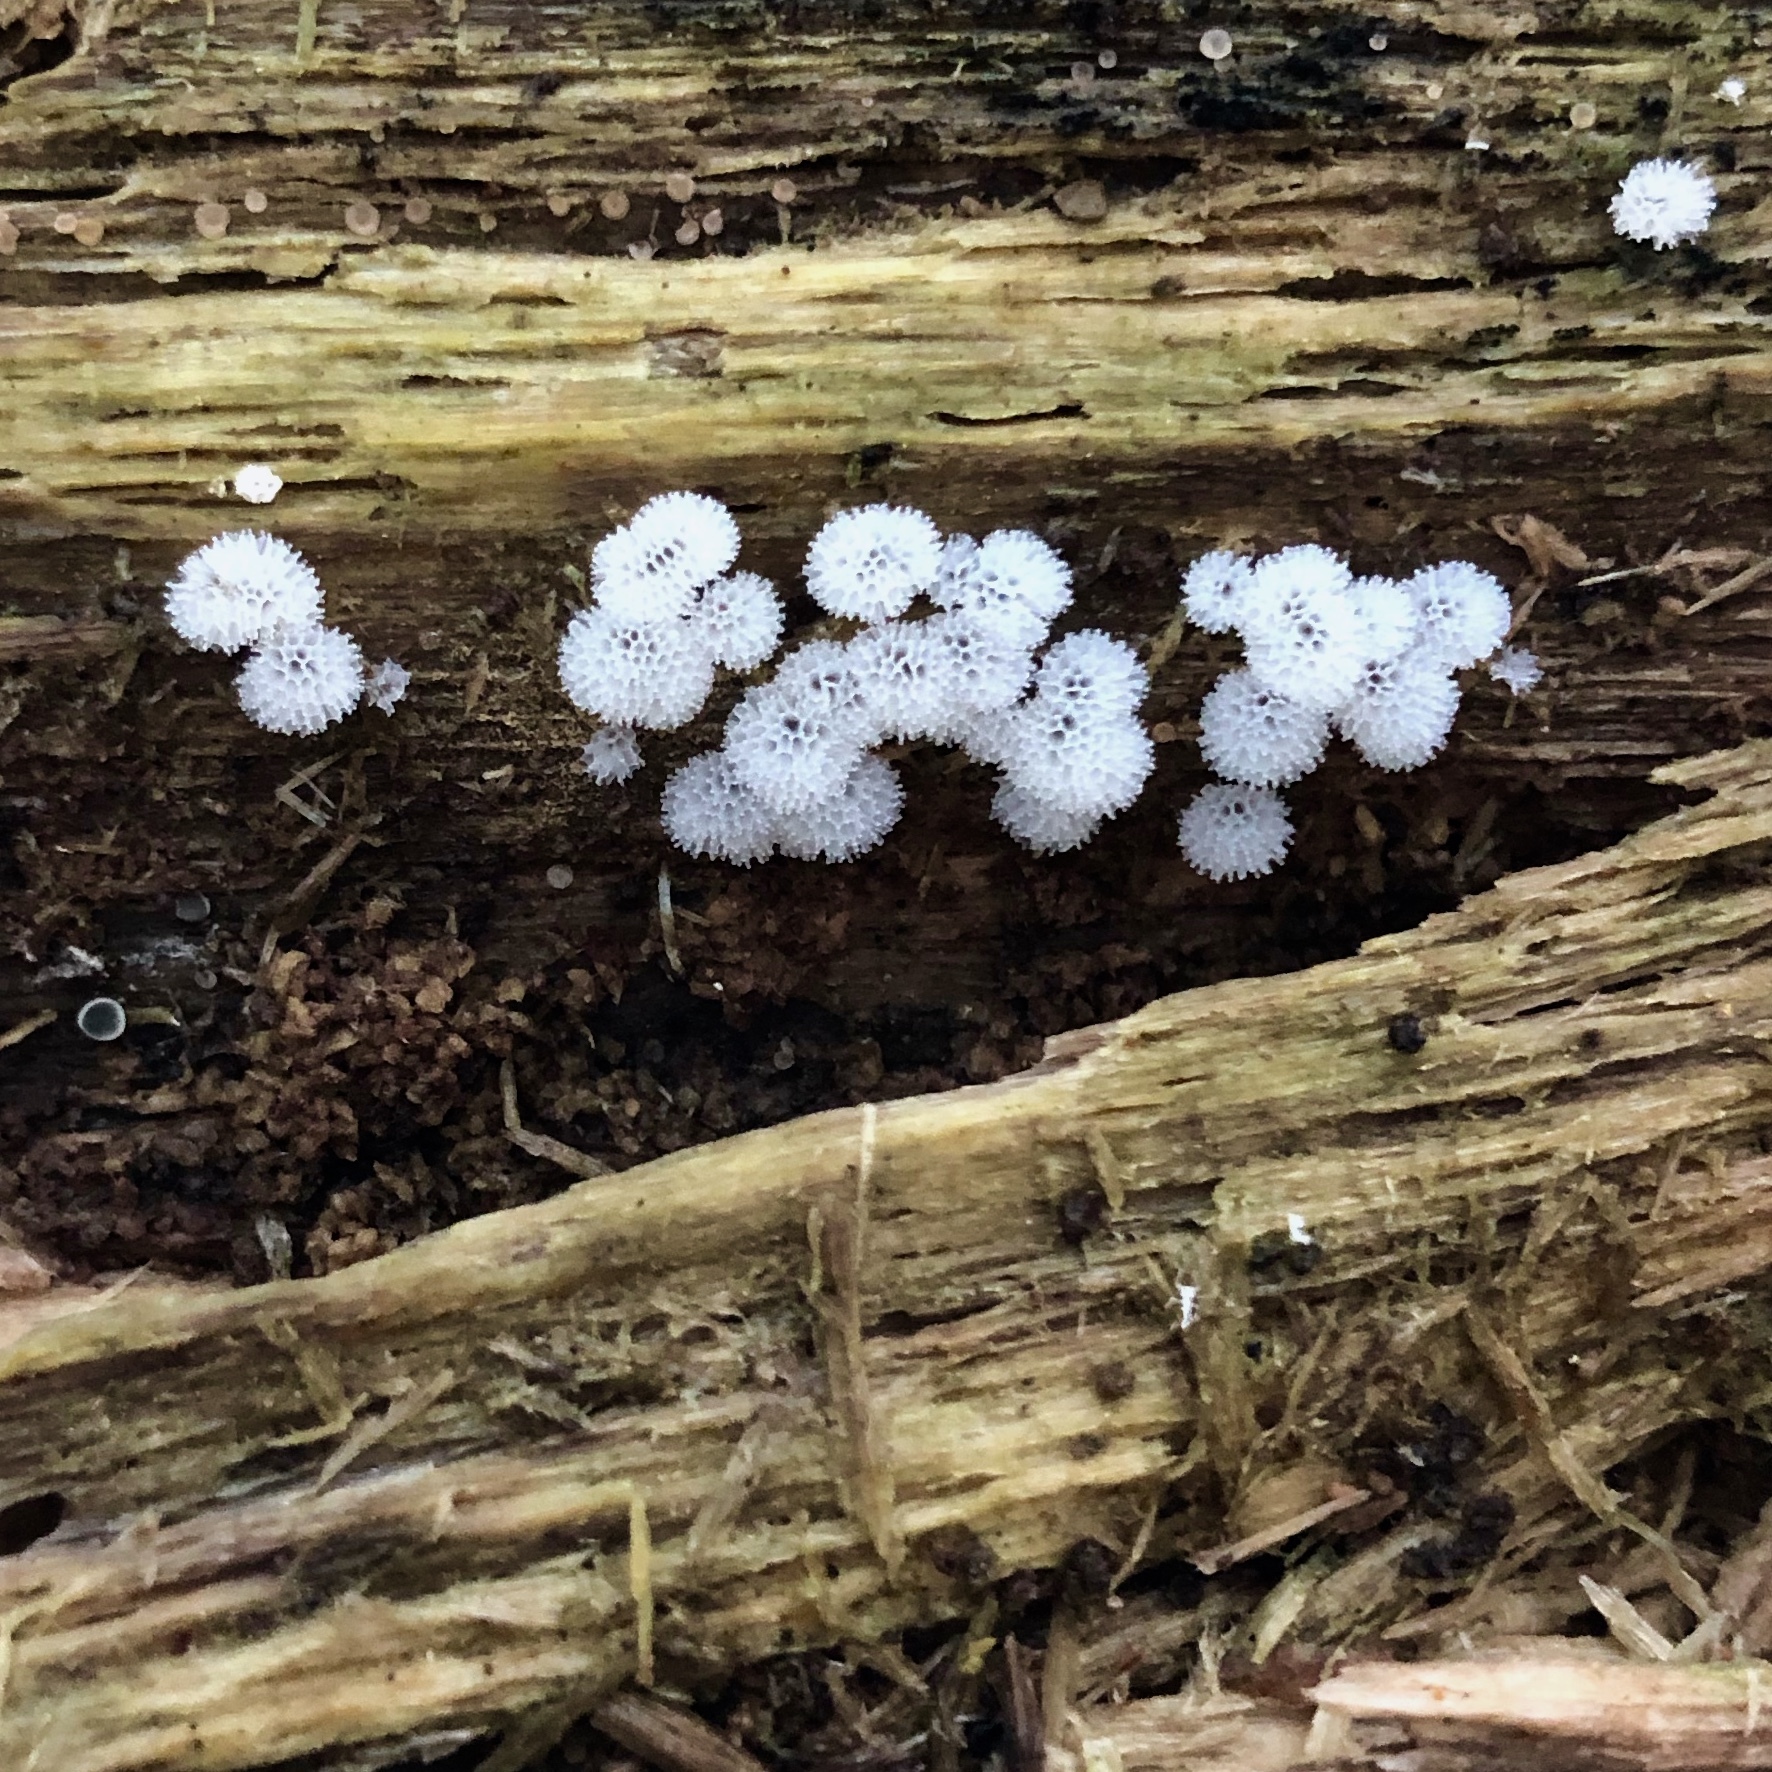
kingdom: Protozoa
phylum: Mycetozoa
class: Protosteliomycetes
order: Ceratiomyxales
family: Ceratiomyxaceae
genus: Ceratiomyxa
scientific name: Ceratiomyxa fruticulosa
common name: Honeycomb coral slime mold
